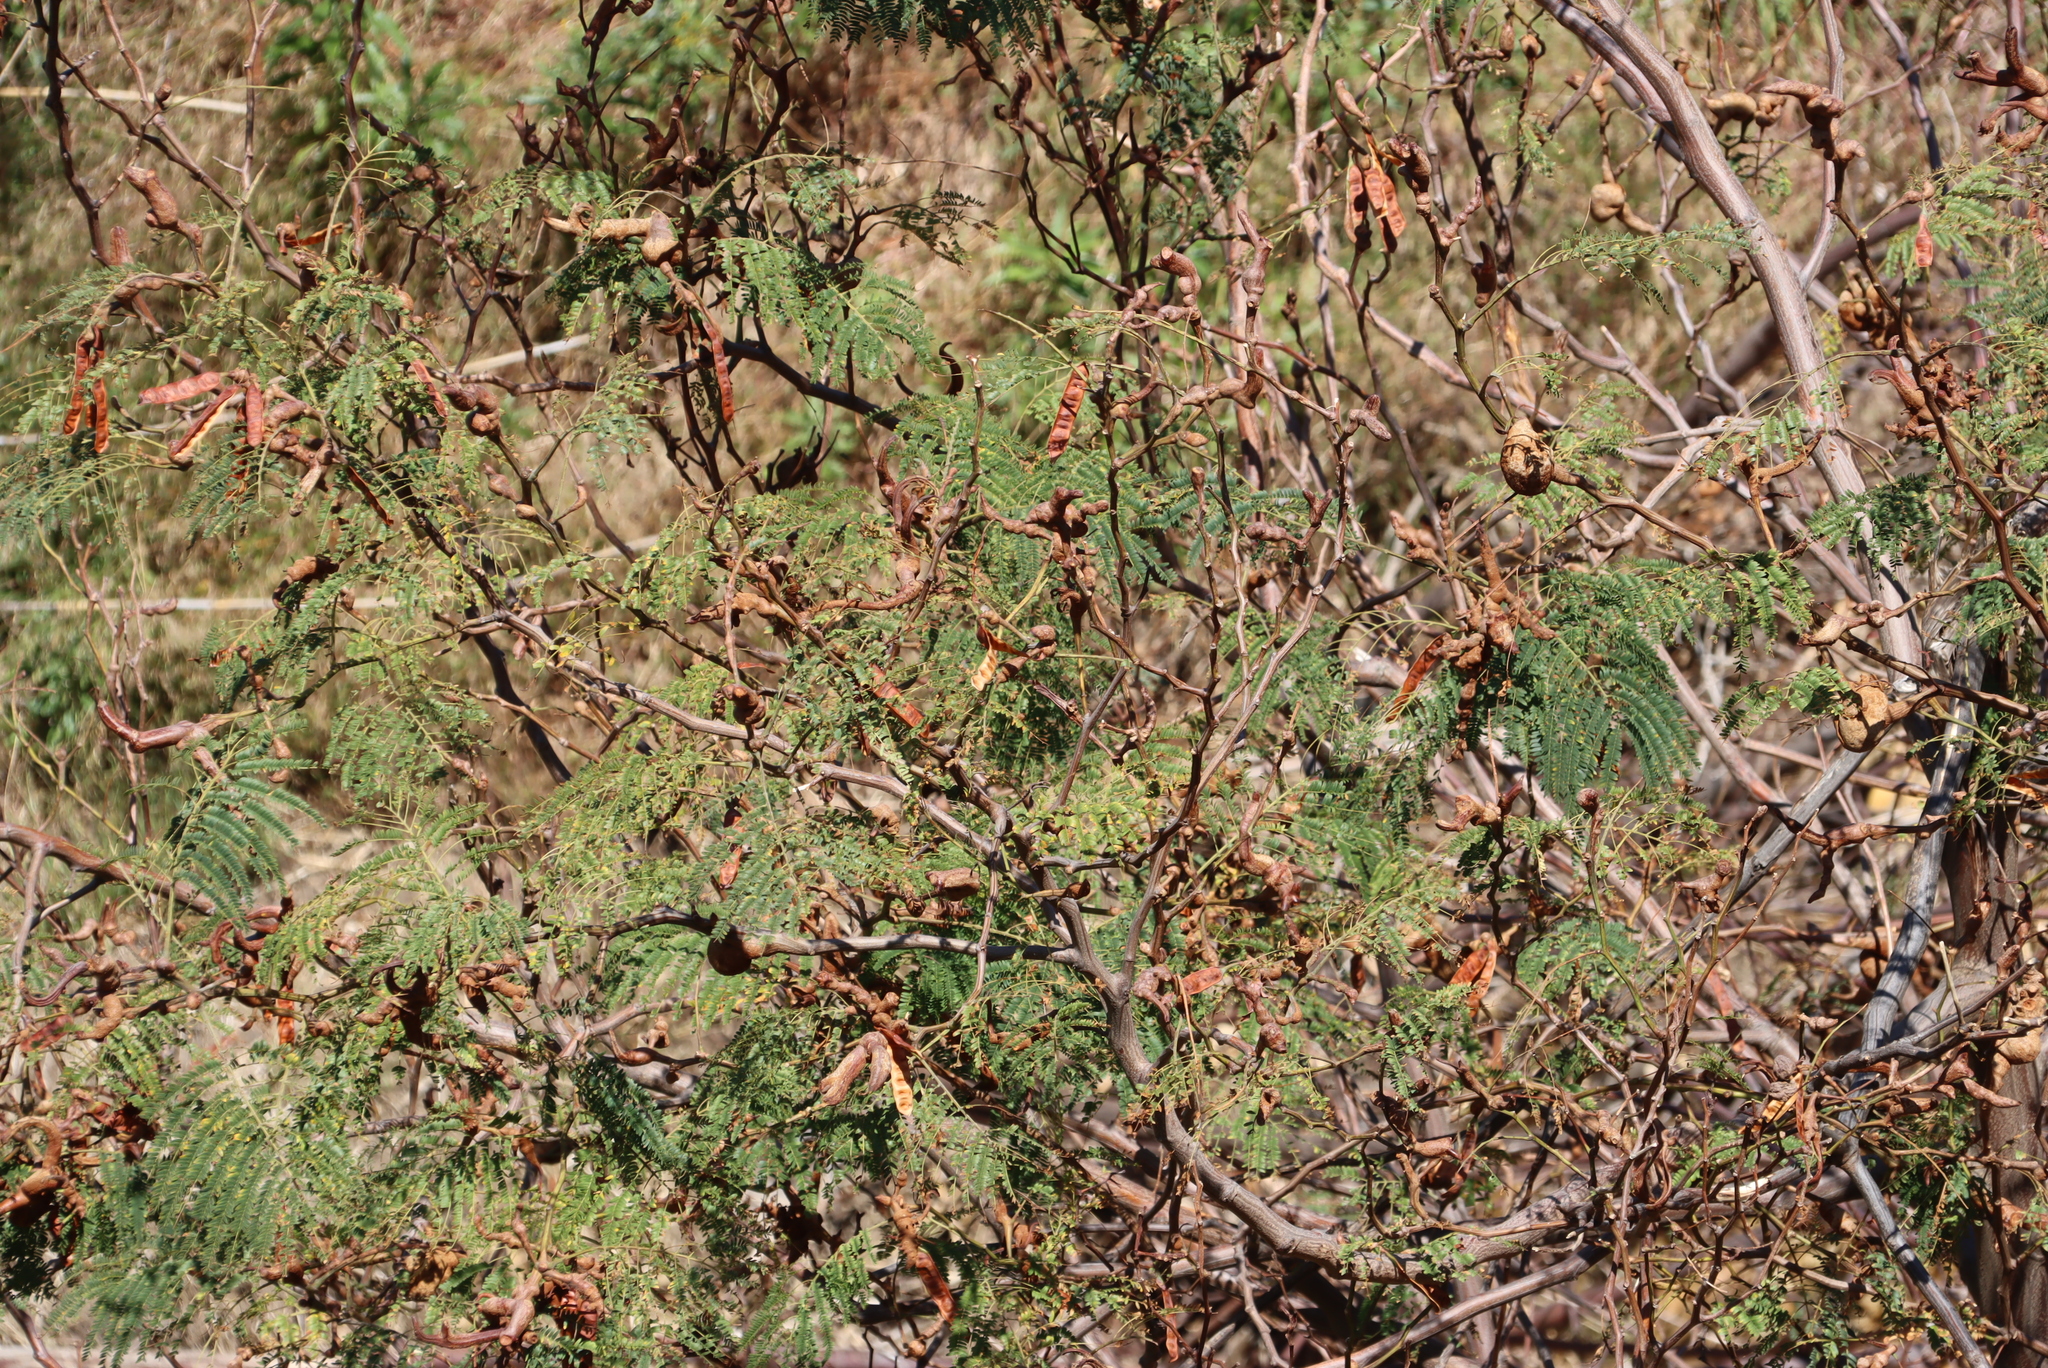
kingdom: Fungi
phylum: Basidiomycota
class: Pucciniomycetes
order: Pucciniales
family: Uromycladiaceae
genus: Uromycladium
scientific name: Uromycladium woodii
